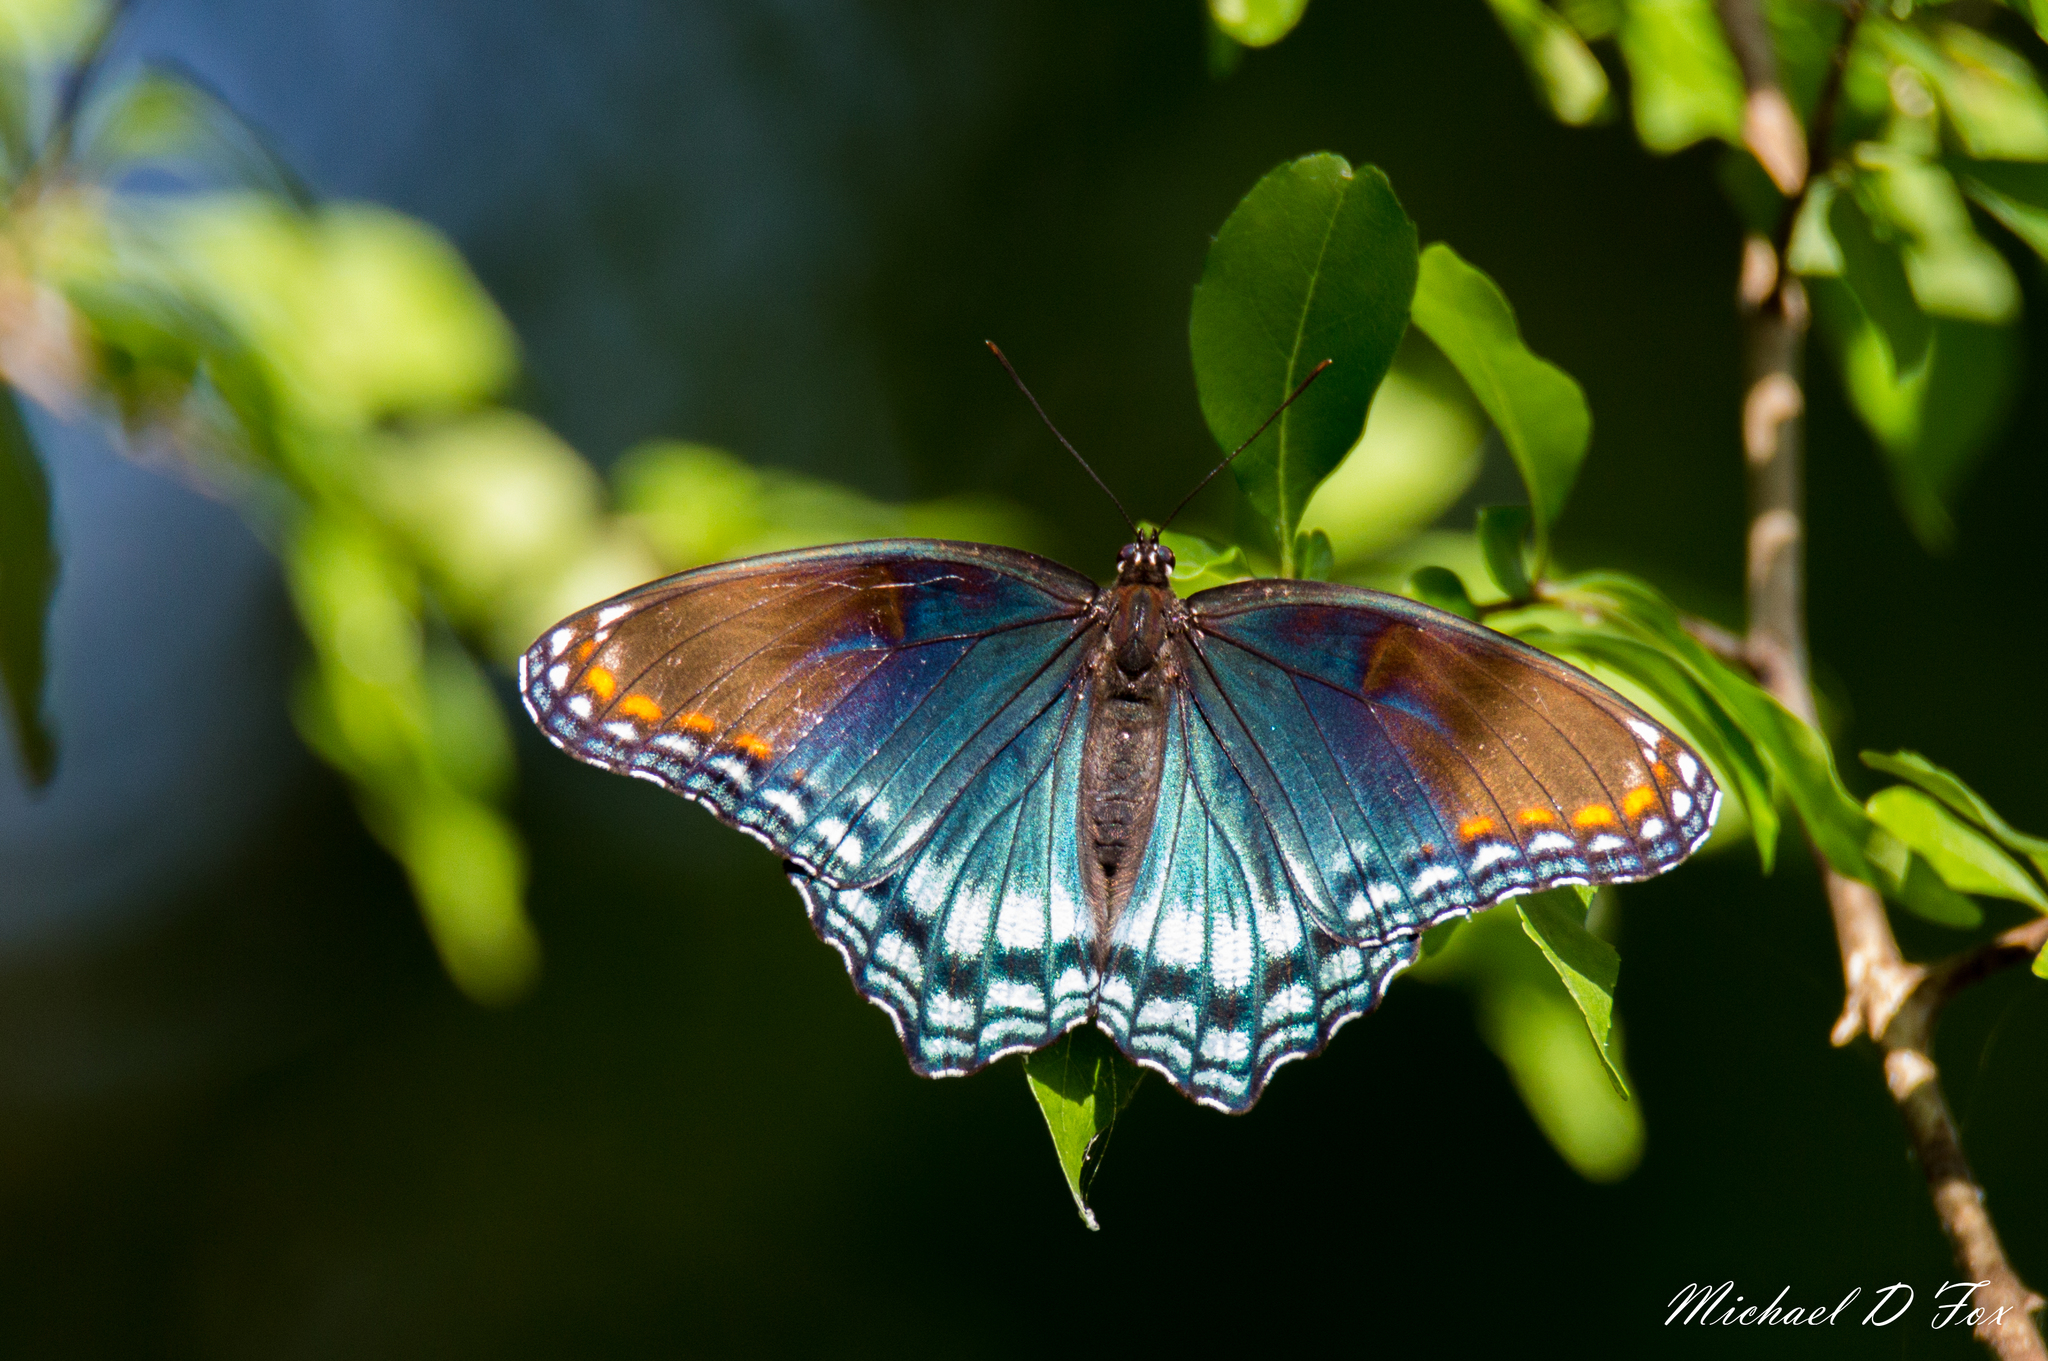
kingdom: Animalia
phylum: Arthropoda
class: Insecta
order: Lepidoptera
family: Nymphalidae
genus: Limenitis
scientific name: Limenitis astyanax
